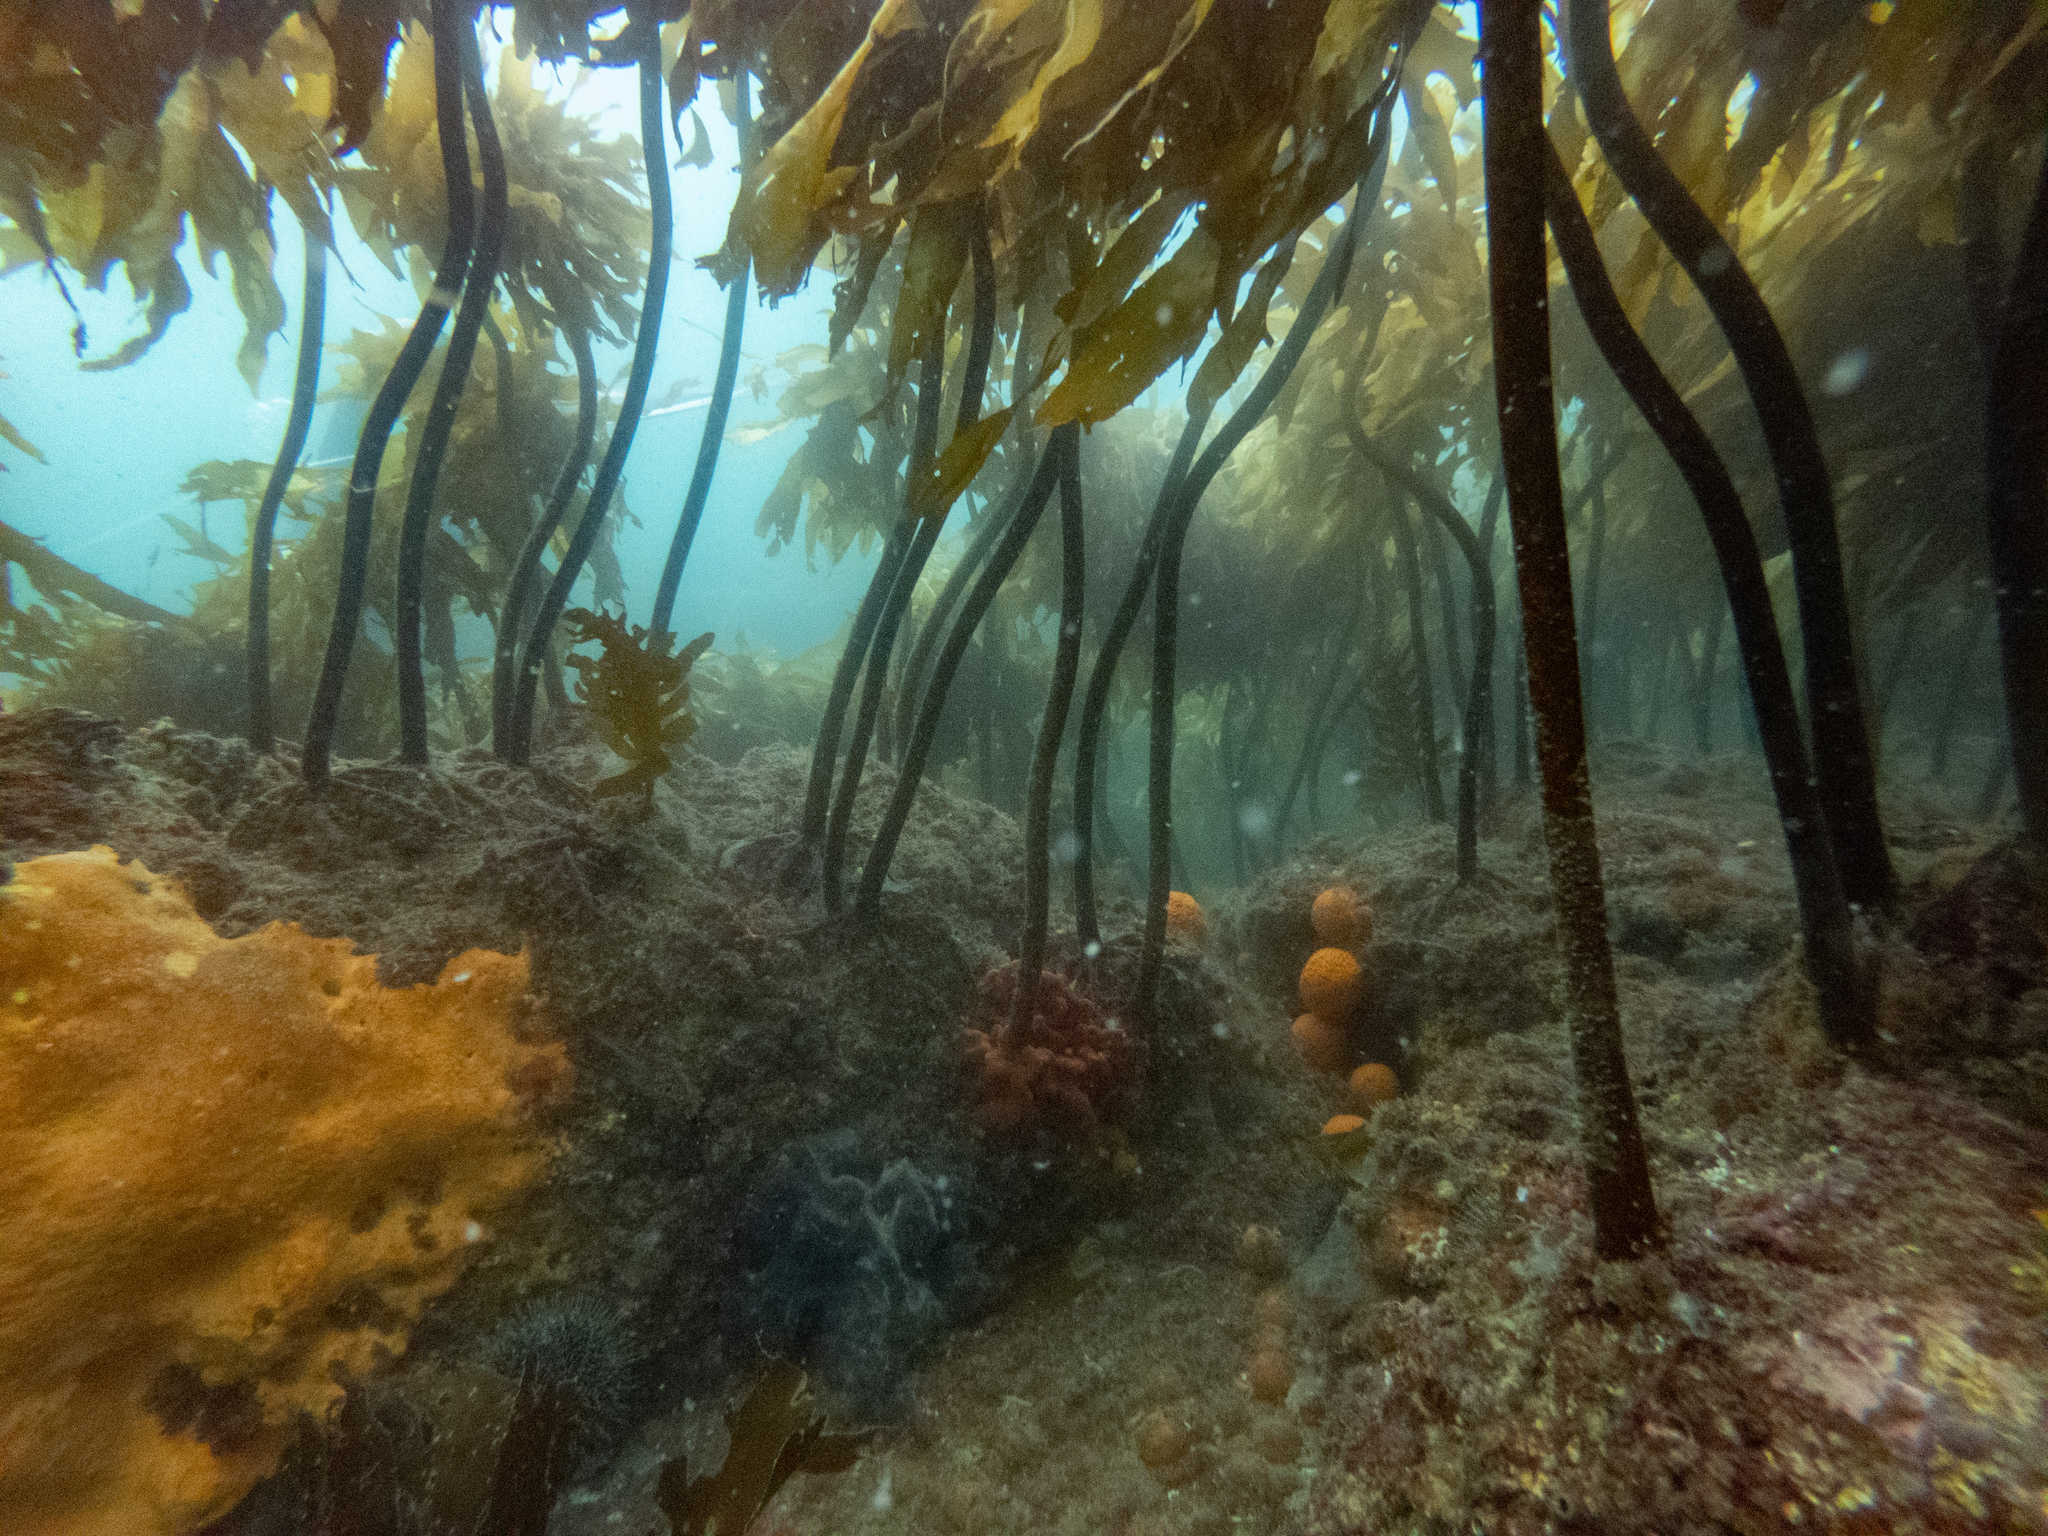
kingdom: Animalia
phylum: Porifera
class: Demospongiae
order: Tethyida
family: Tethyidae
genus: Tethya
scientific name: Tethya burtoni
